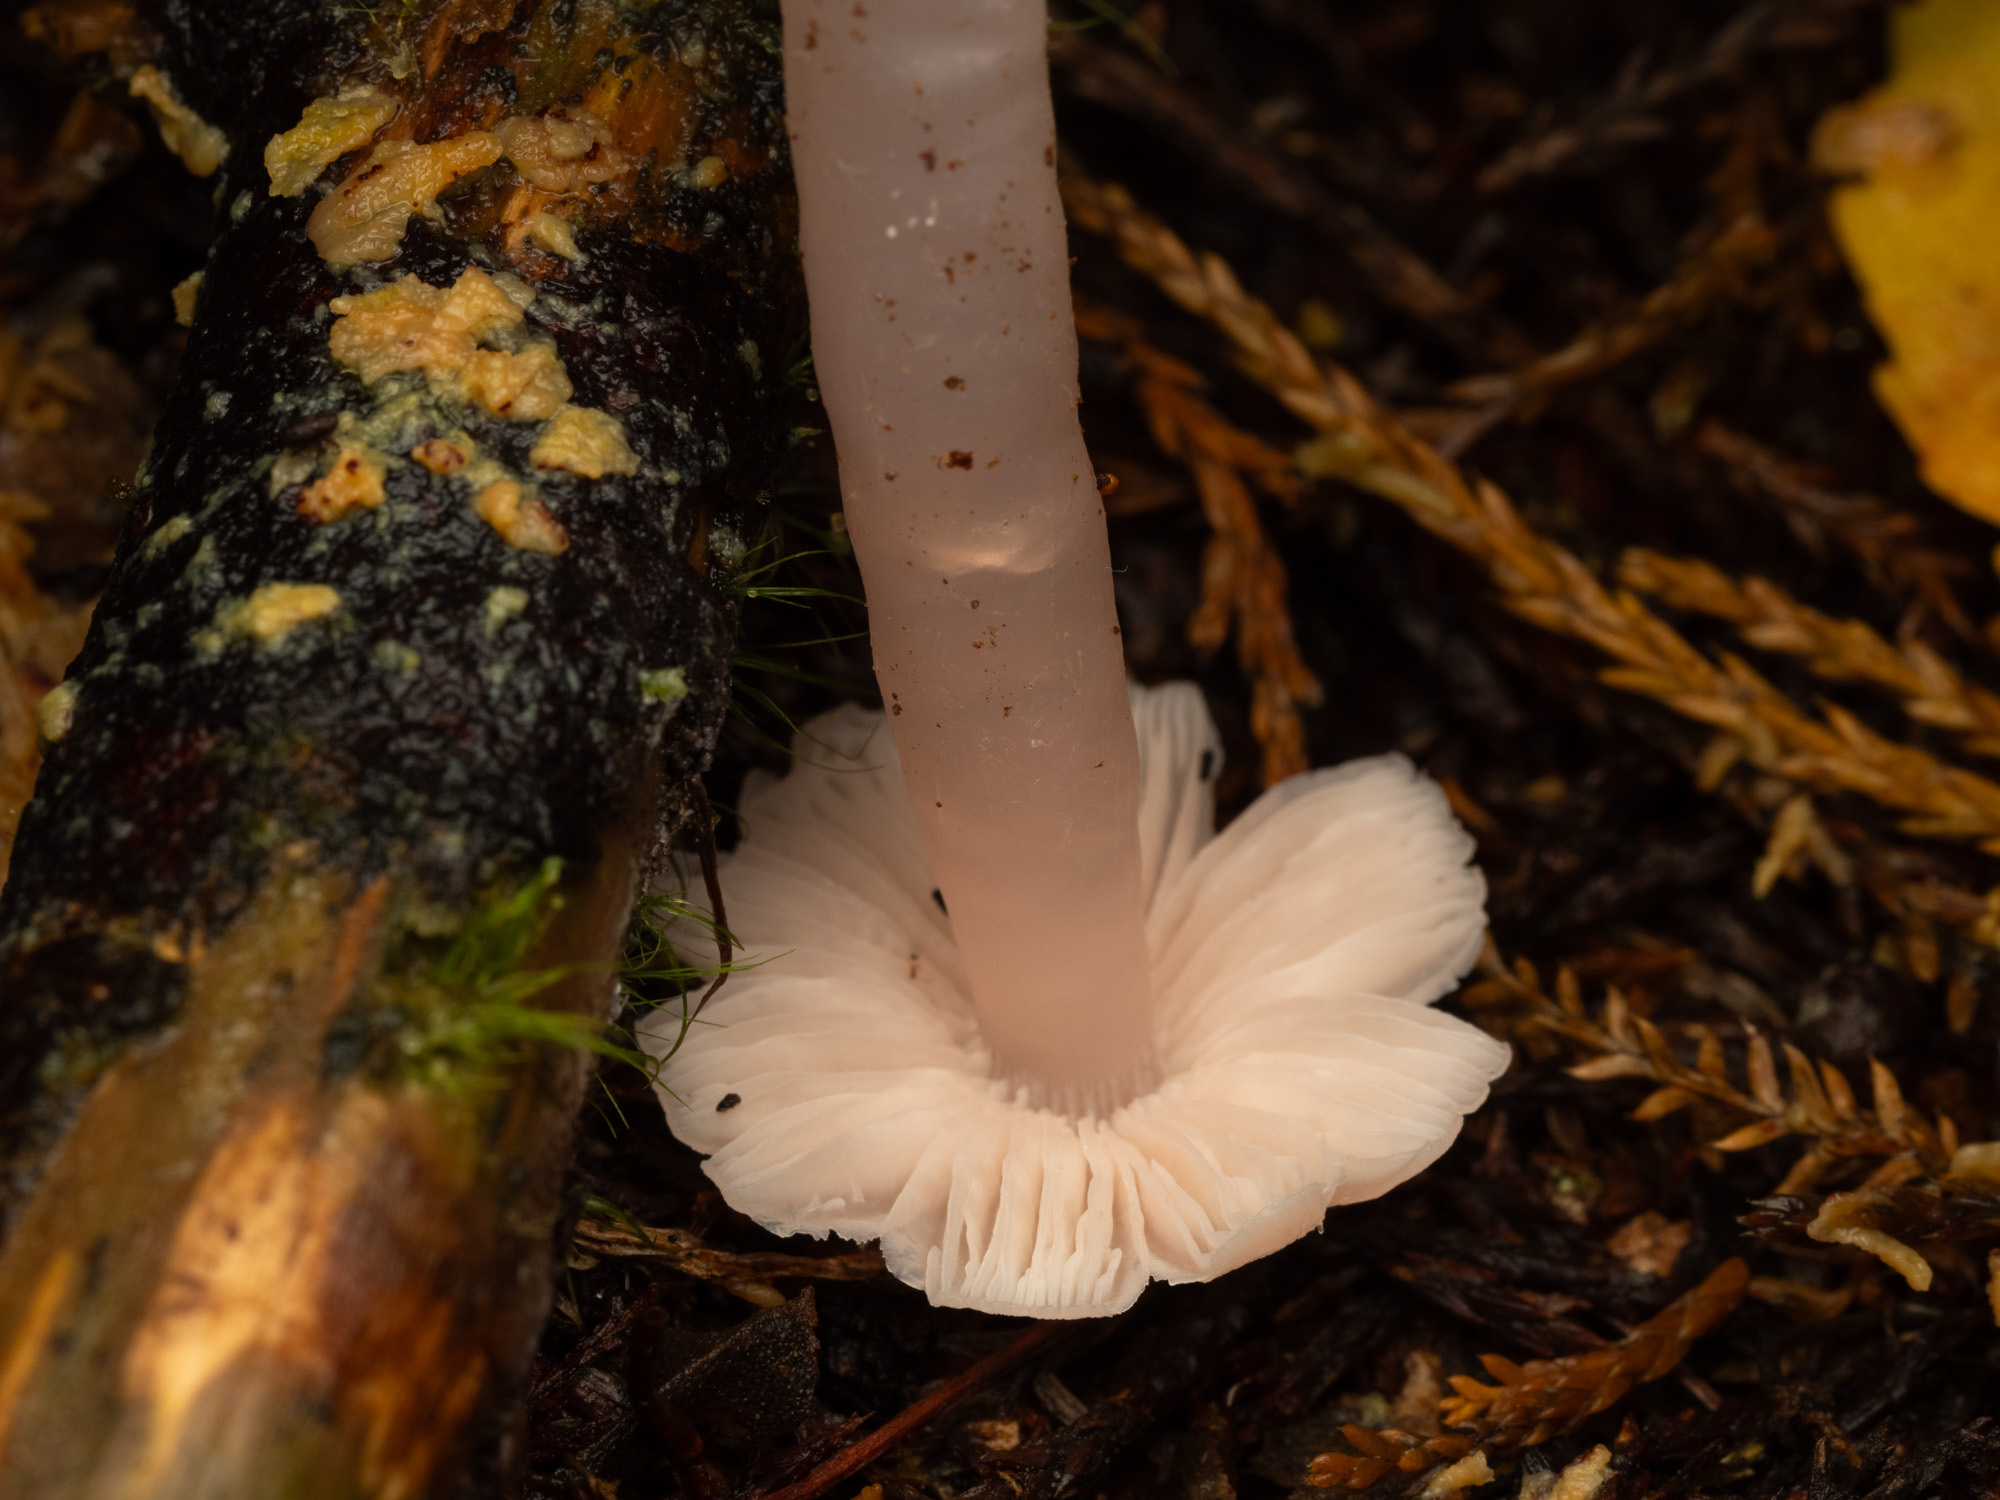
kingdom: Fungi
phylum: Basidiomycota
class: Agaricomycetes
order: Agaricales
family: Hygrophoraceae
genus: Humidicutis
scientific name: Humidicutis
